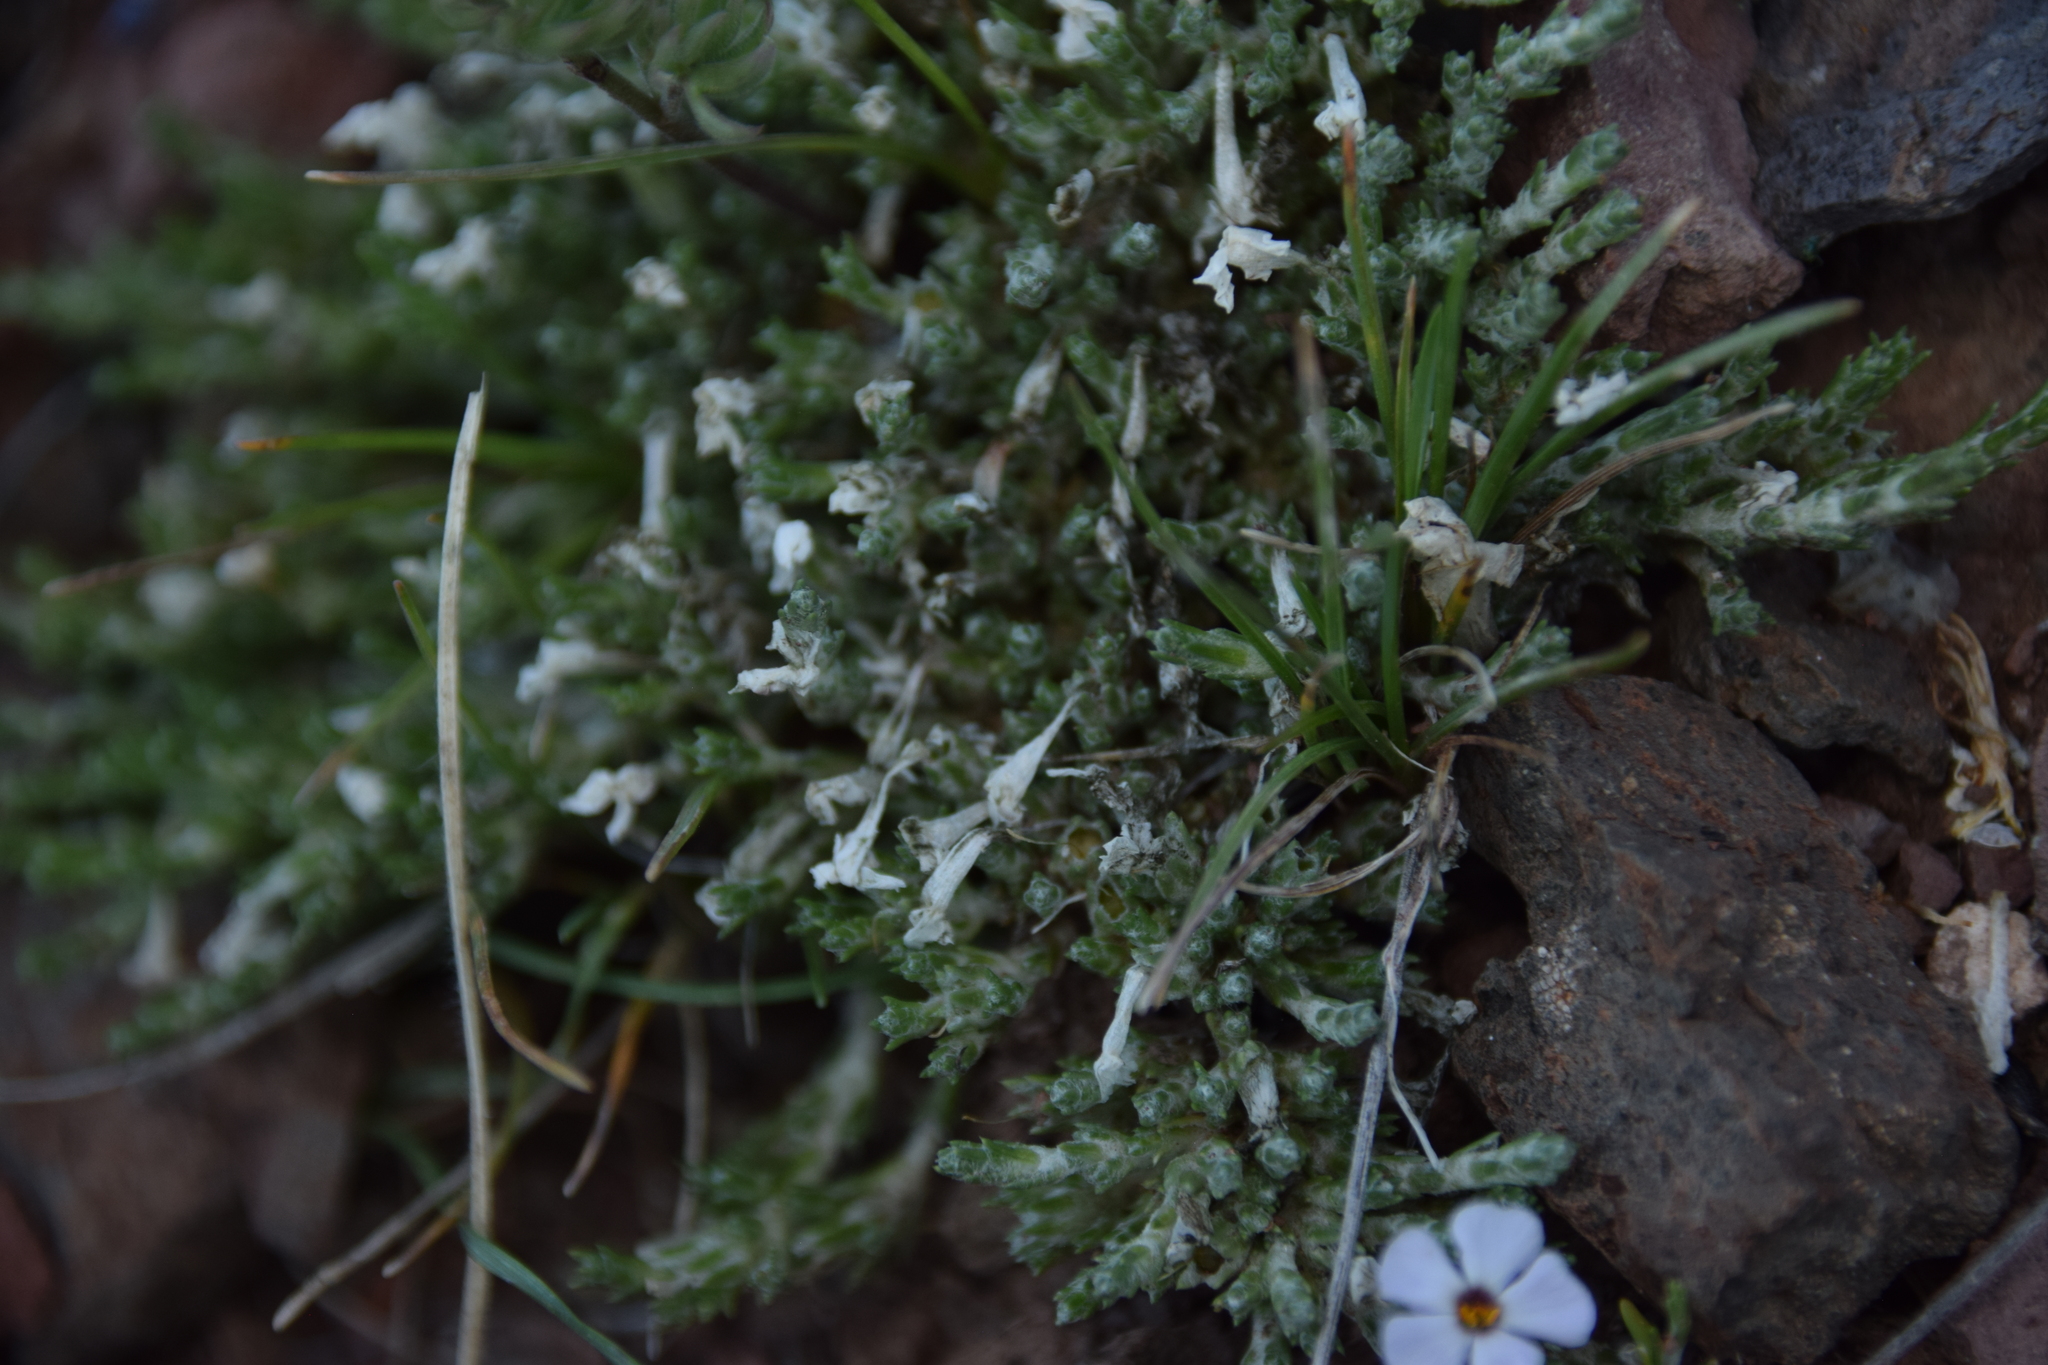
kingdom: Plantae
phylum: Tracheophyta
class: Magnoliopsida
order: Ericales
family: Polemoniaceae
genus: Phlox
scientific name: Phlox hoodii
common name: Moss phlox
